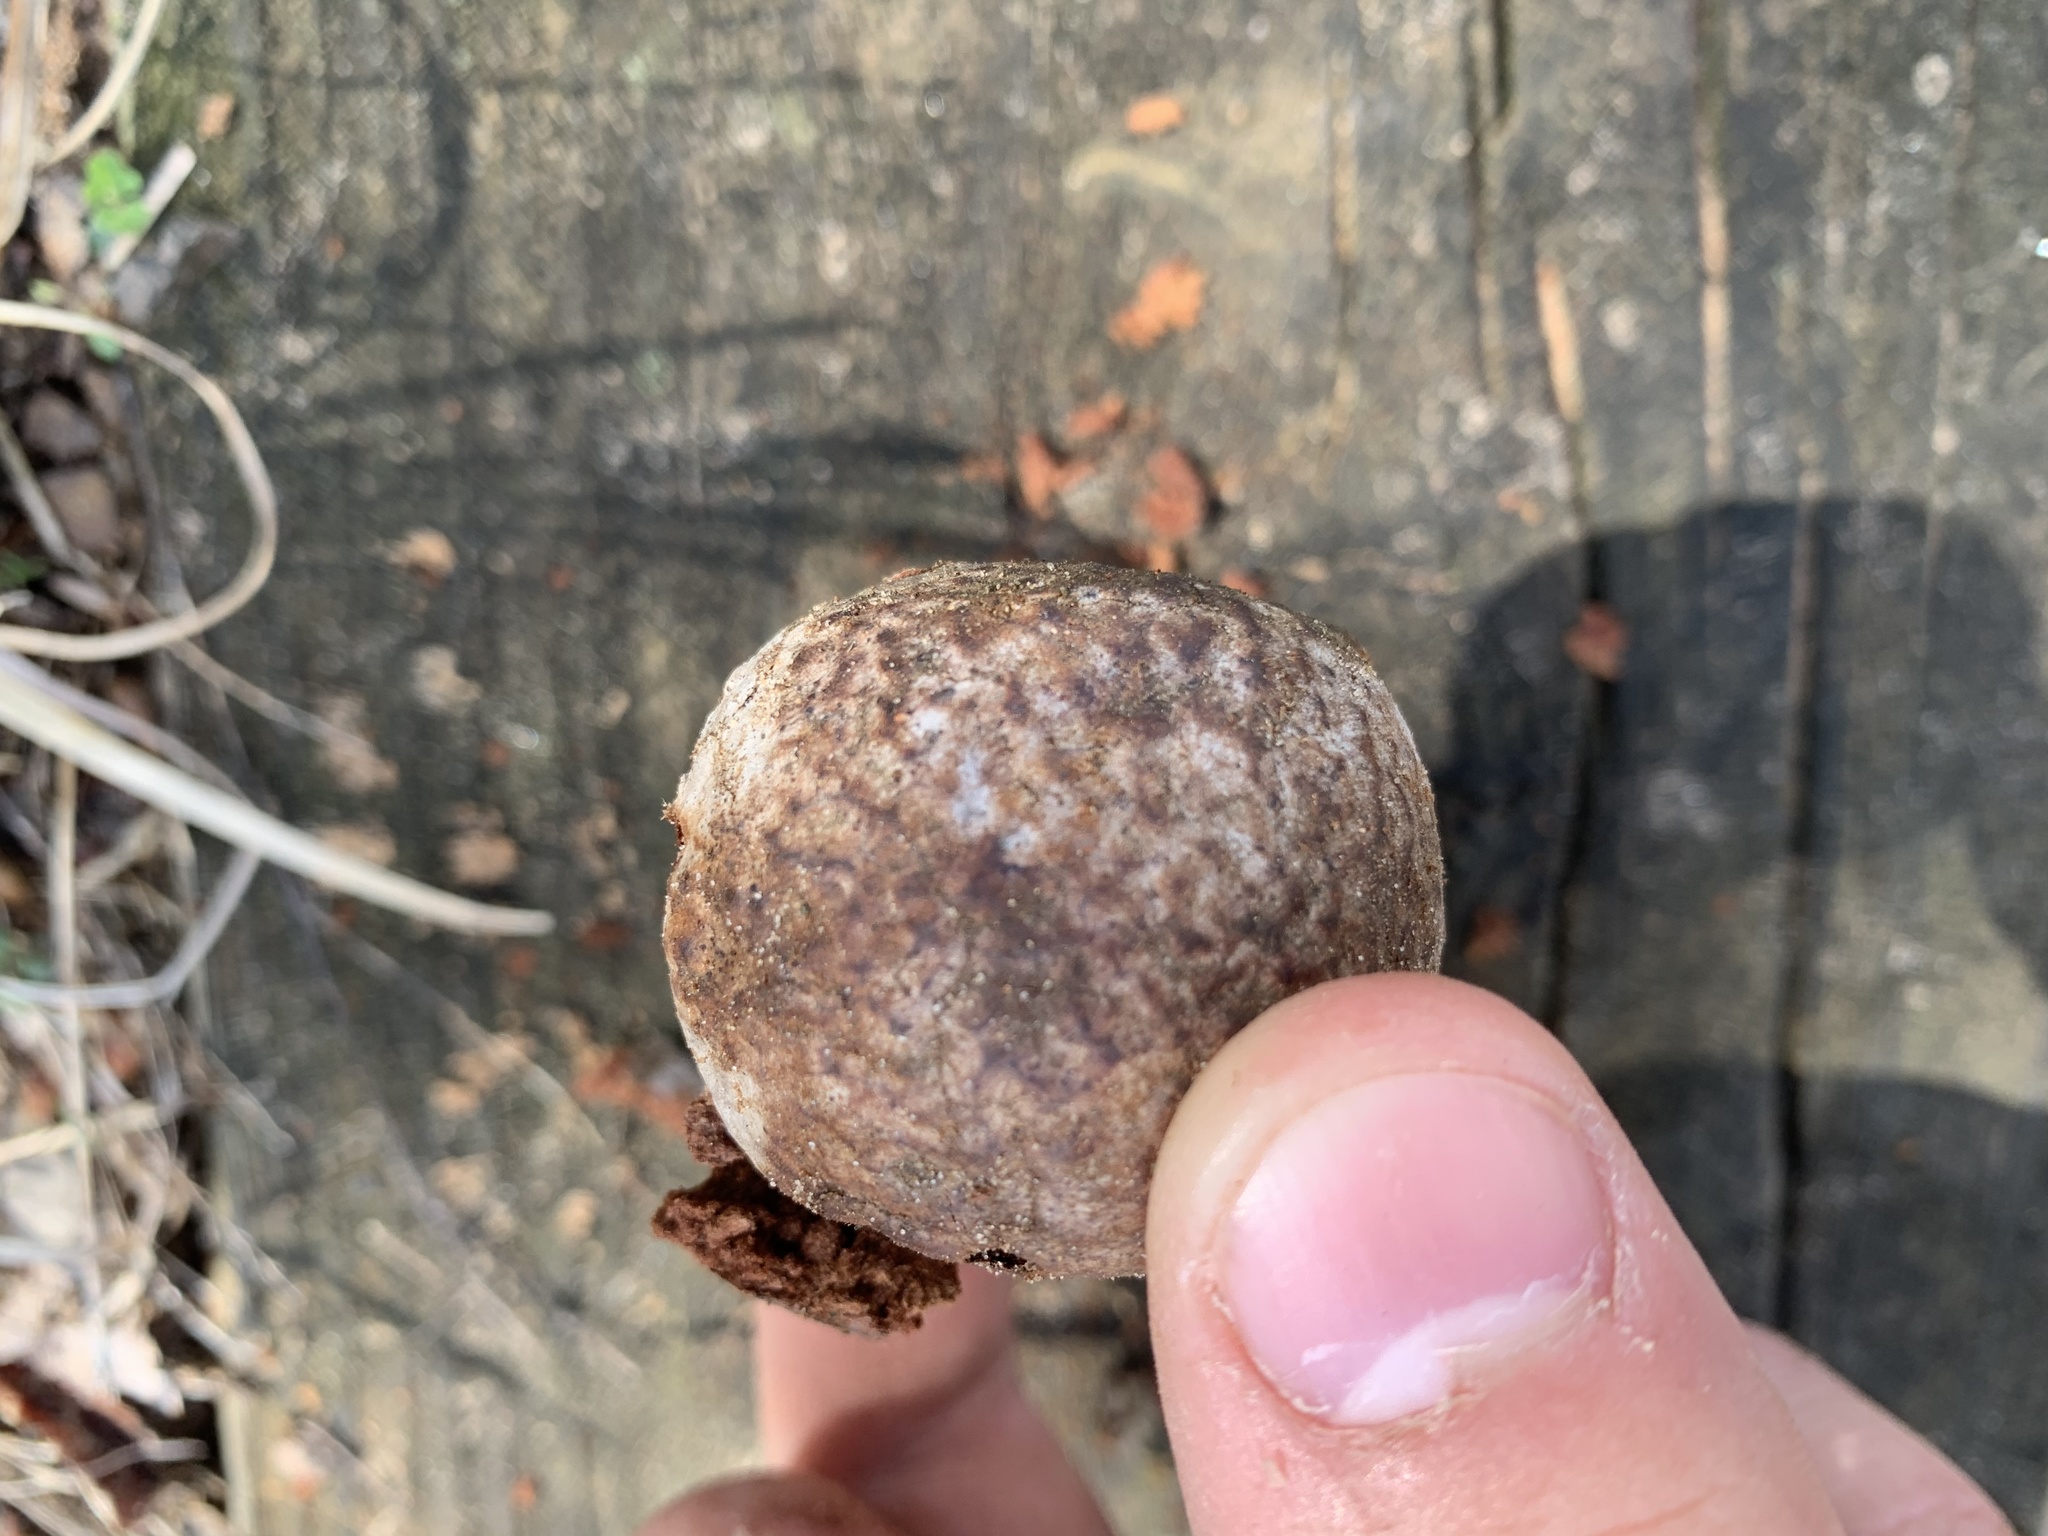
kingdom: Animalia
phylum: Arthropoda
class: Insecta
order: Hymenoptera
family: Cynipidae
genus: Amphibolips
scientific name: Amphibolips gainesi
